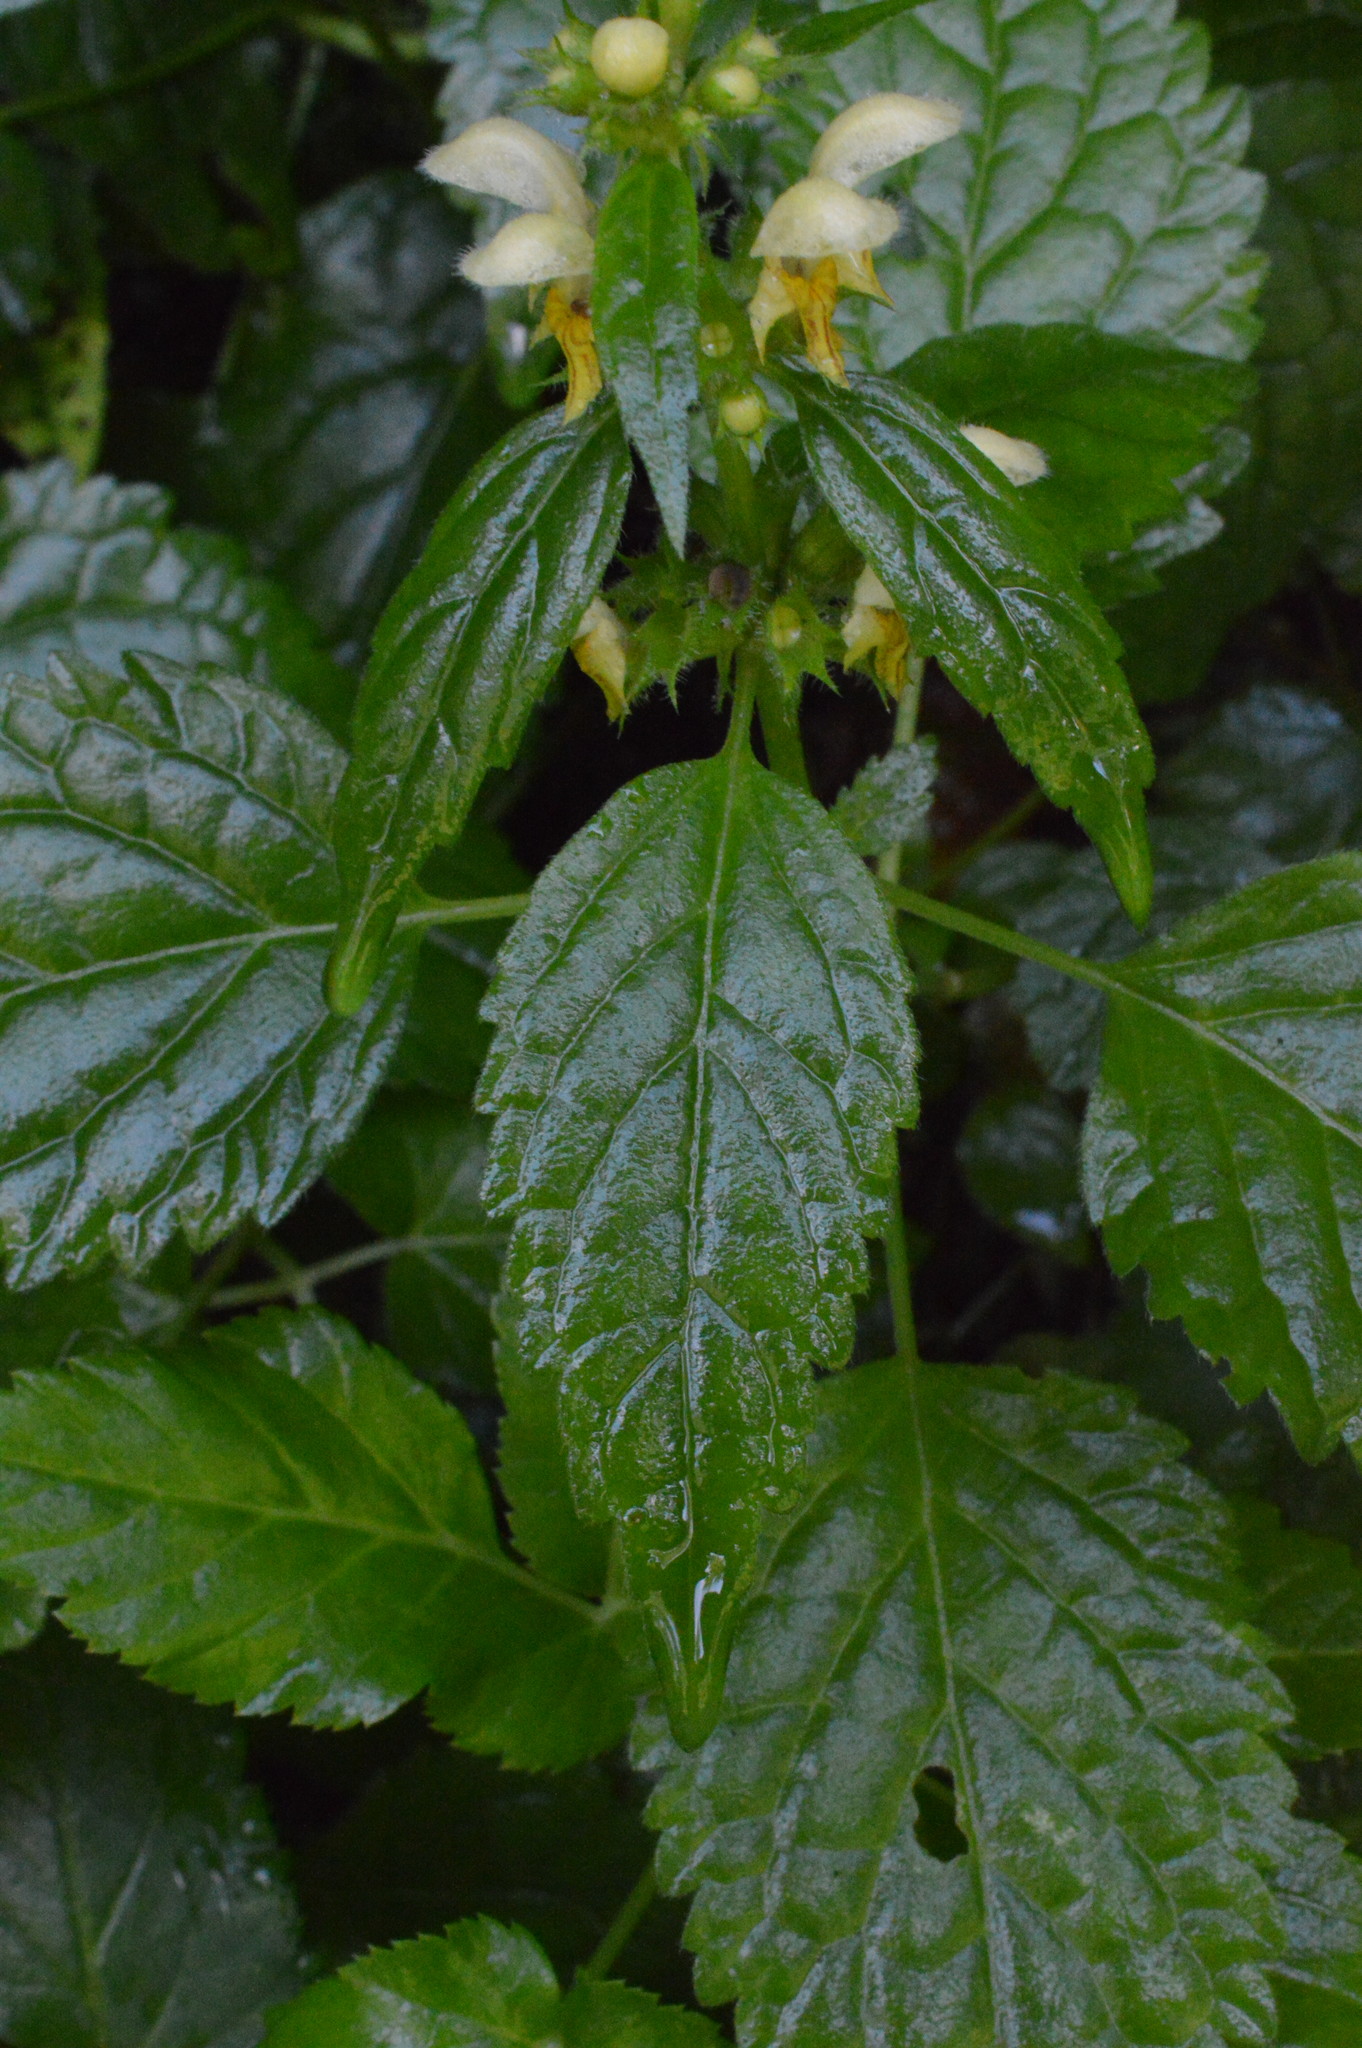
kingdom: Plantae
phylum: Tracheophyta
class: Magnoliopsida
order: Lamiales
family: Lamiaceae
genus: Lamium
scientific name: Lamium galeobdolon
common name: Yellow archangel
